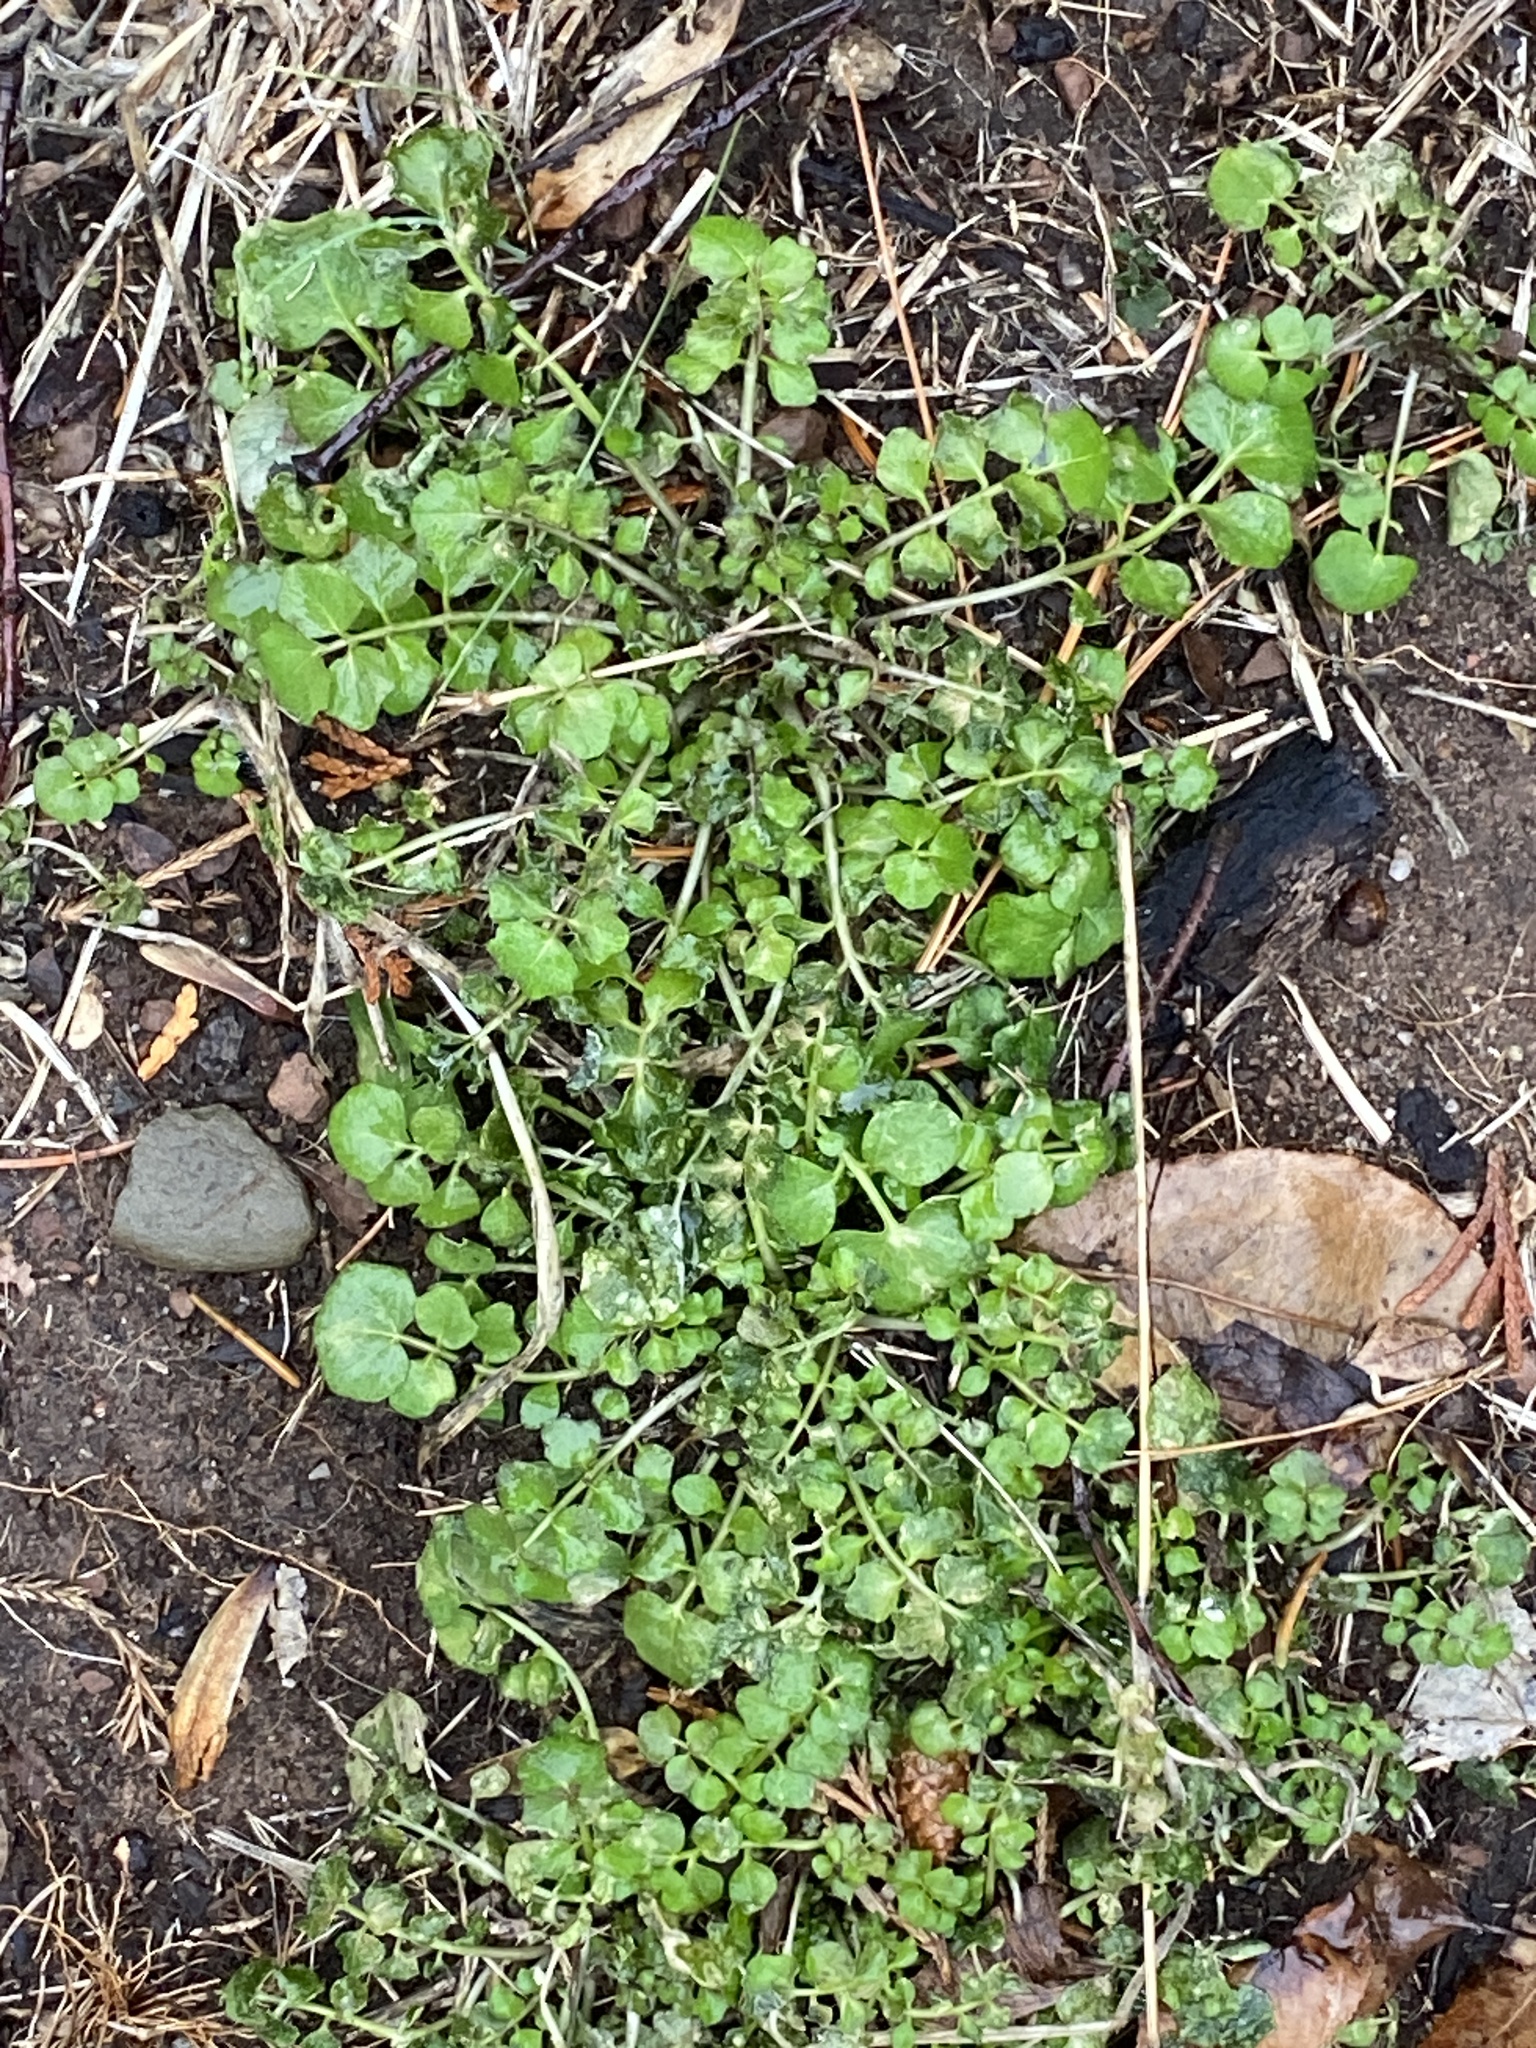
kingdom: Plantae
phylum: Tracheophyta
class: Magnoliopsida
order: Brassicales
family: Brassicaceae
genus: Cardamine
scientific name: Cardamine hirsuta
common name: Hairy bittercress
